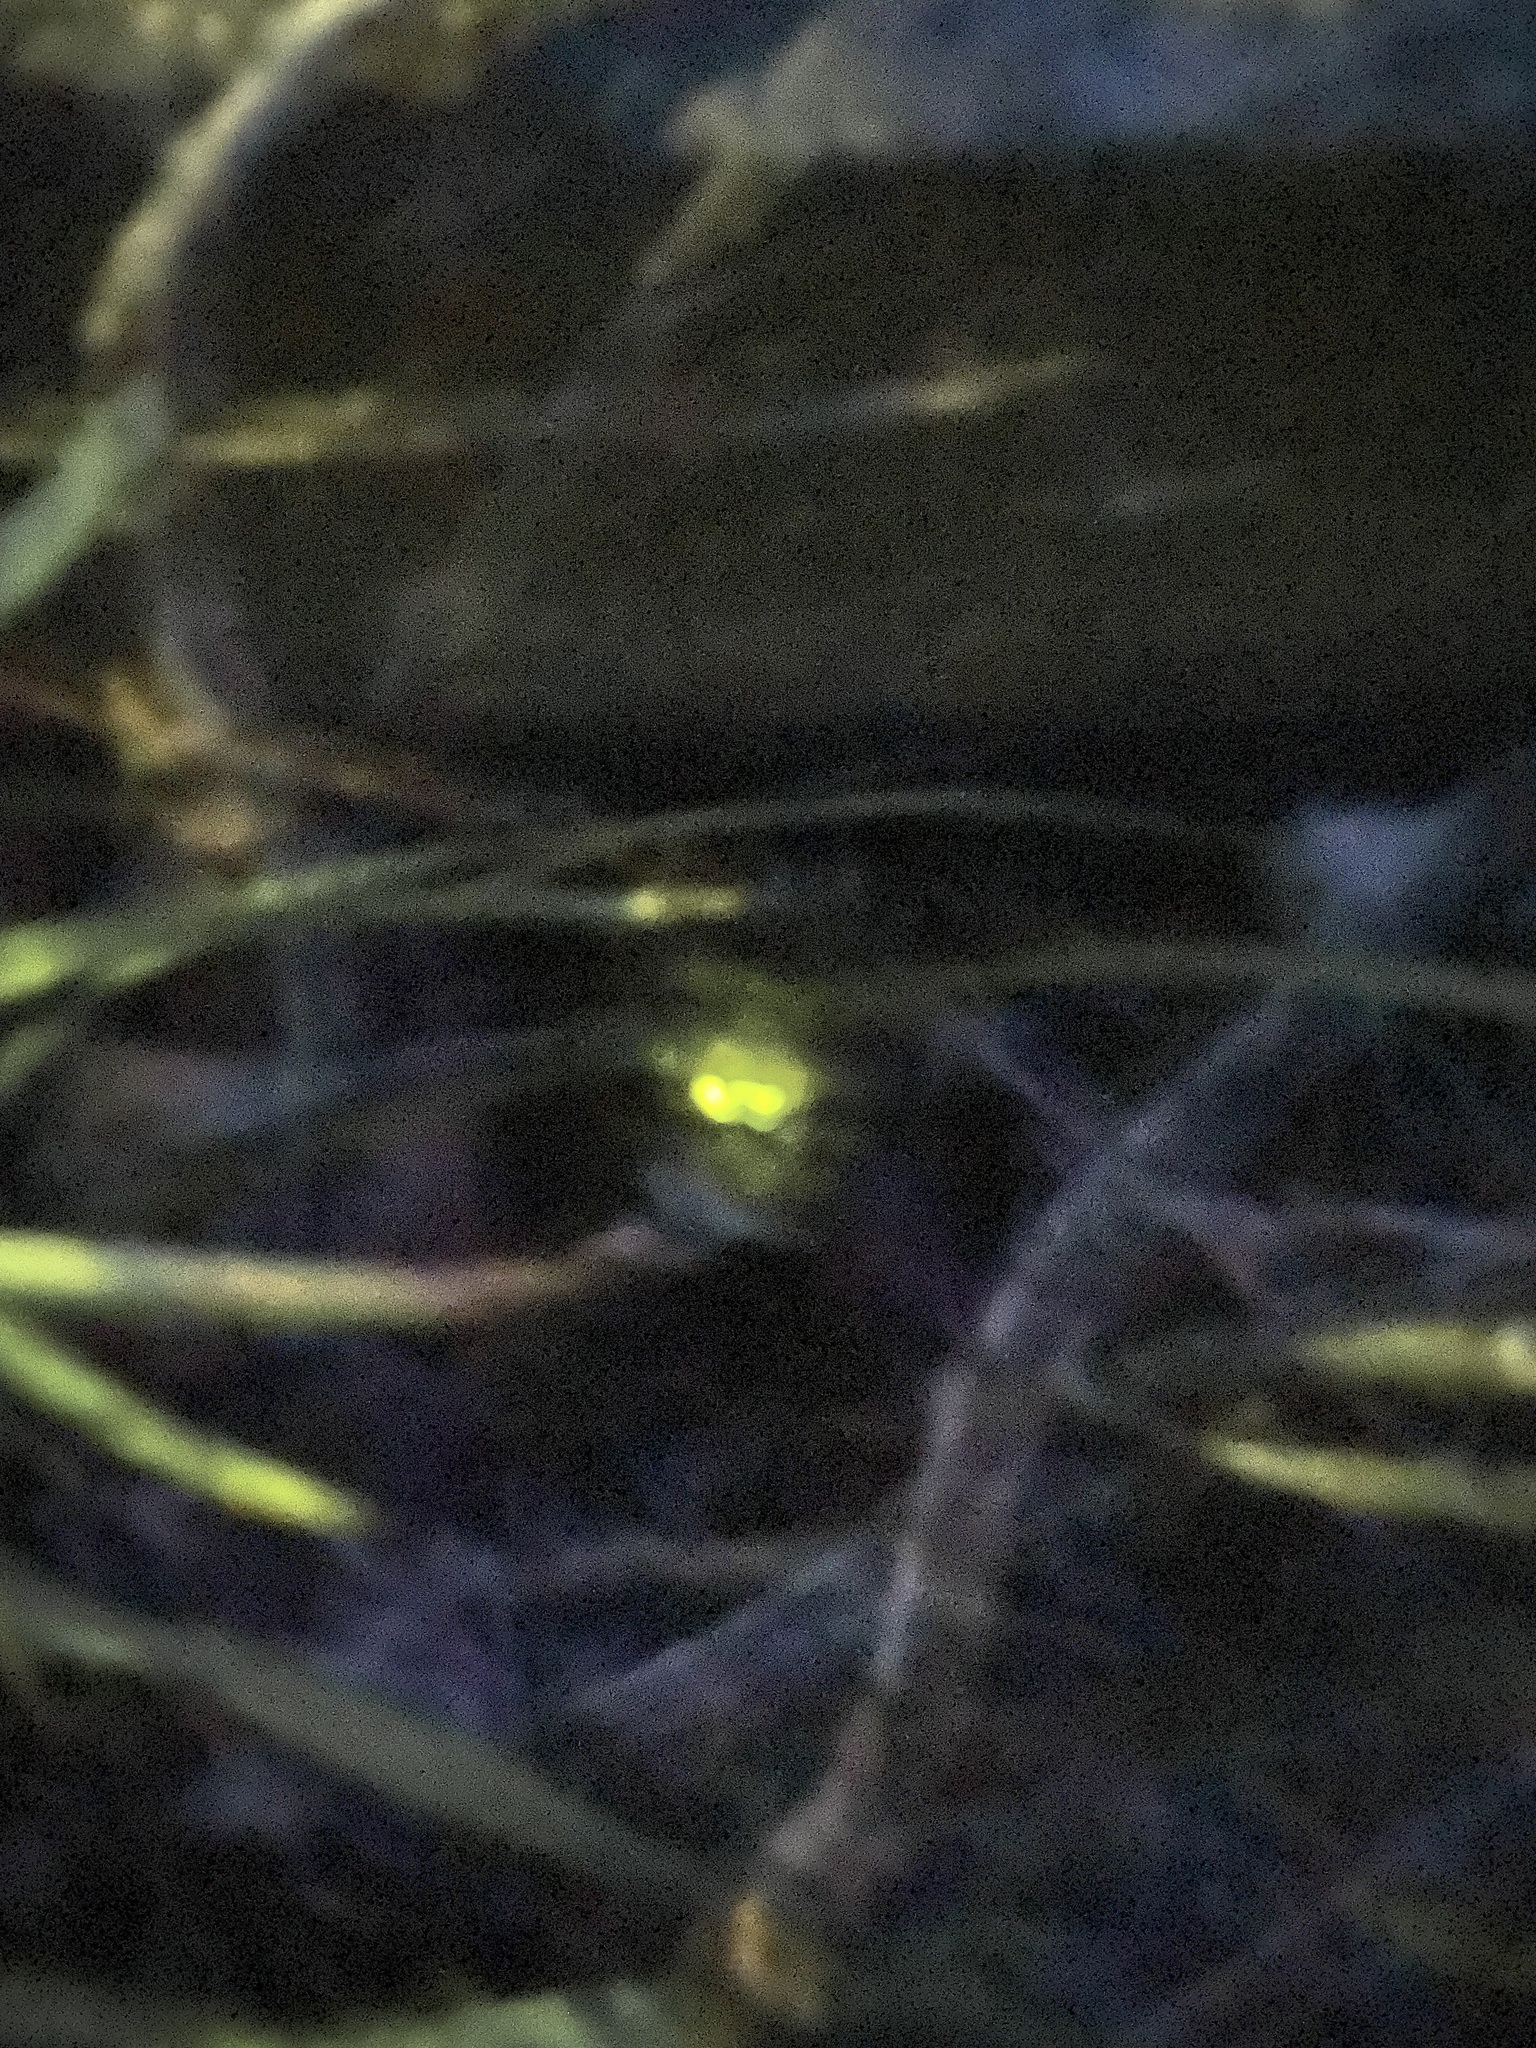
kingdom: Animalia
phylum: Arthropoda
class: Insecta
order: Coleoptera
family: Lampyridae
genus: Lampyris
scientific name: Lampyris noctiluca
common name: Glow-worm
